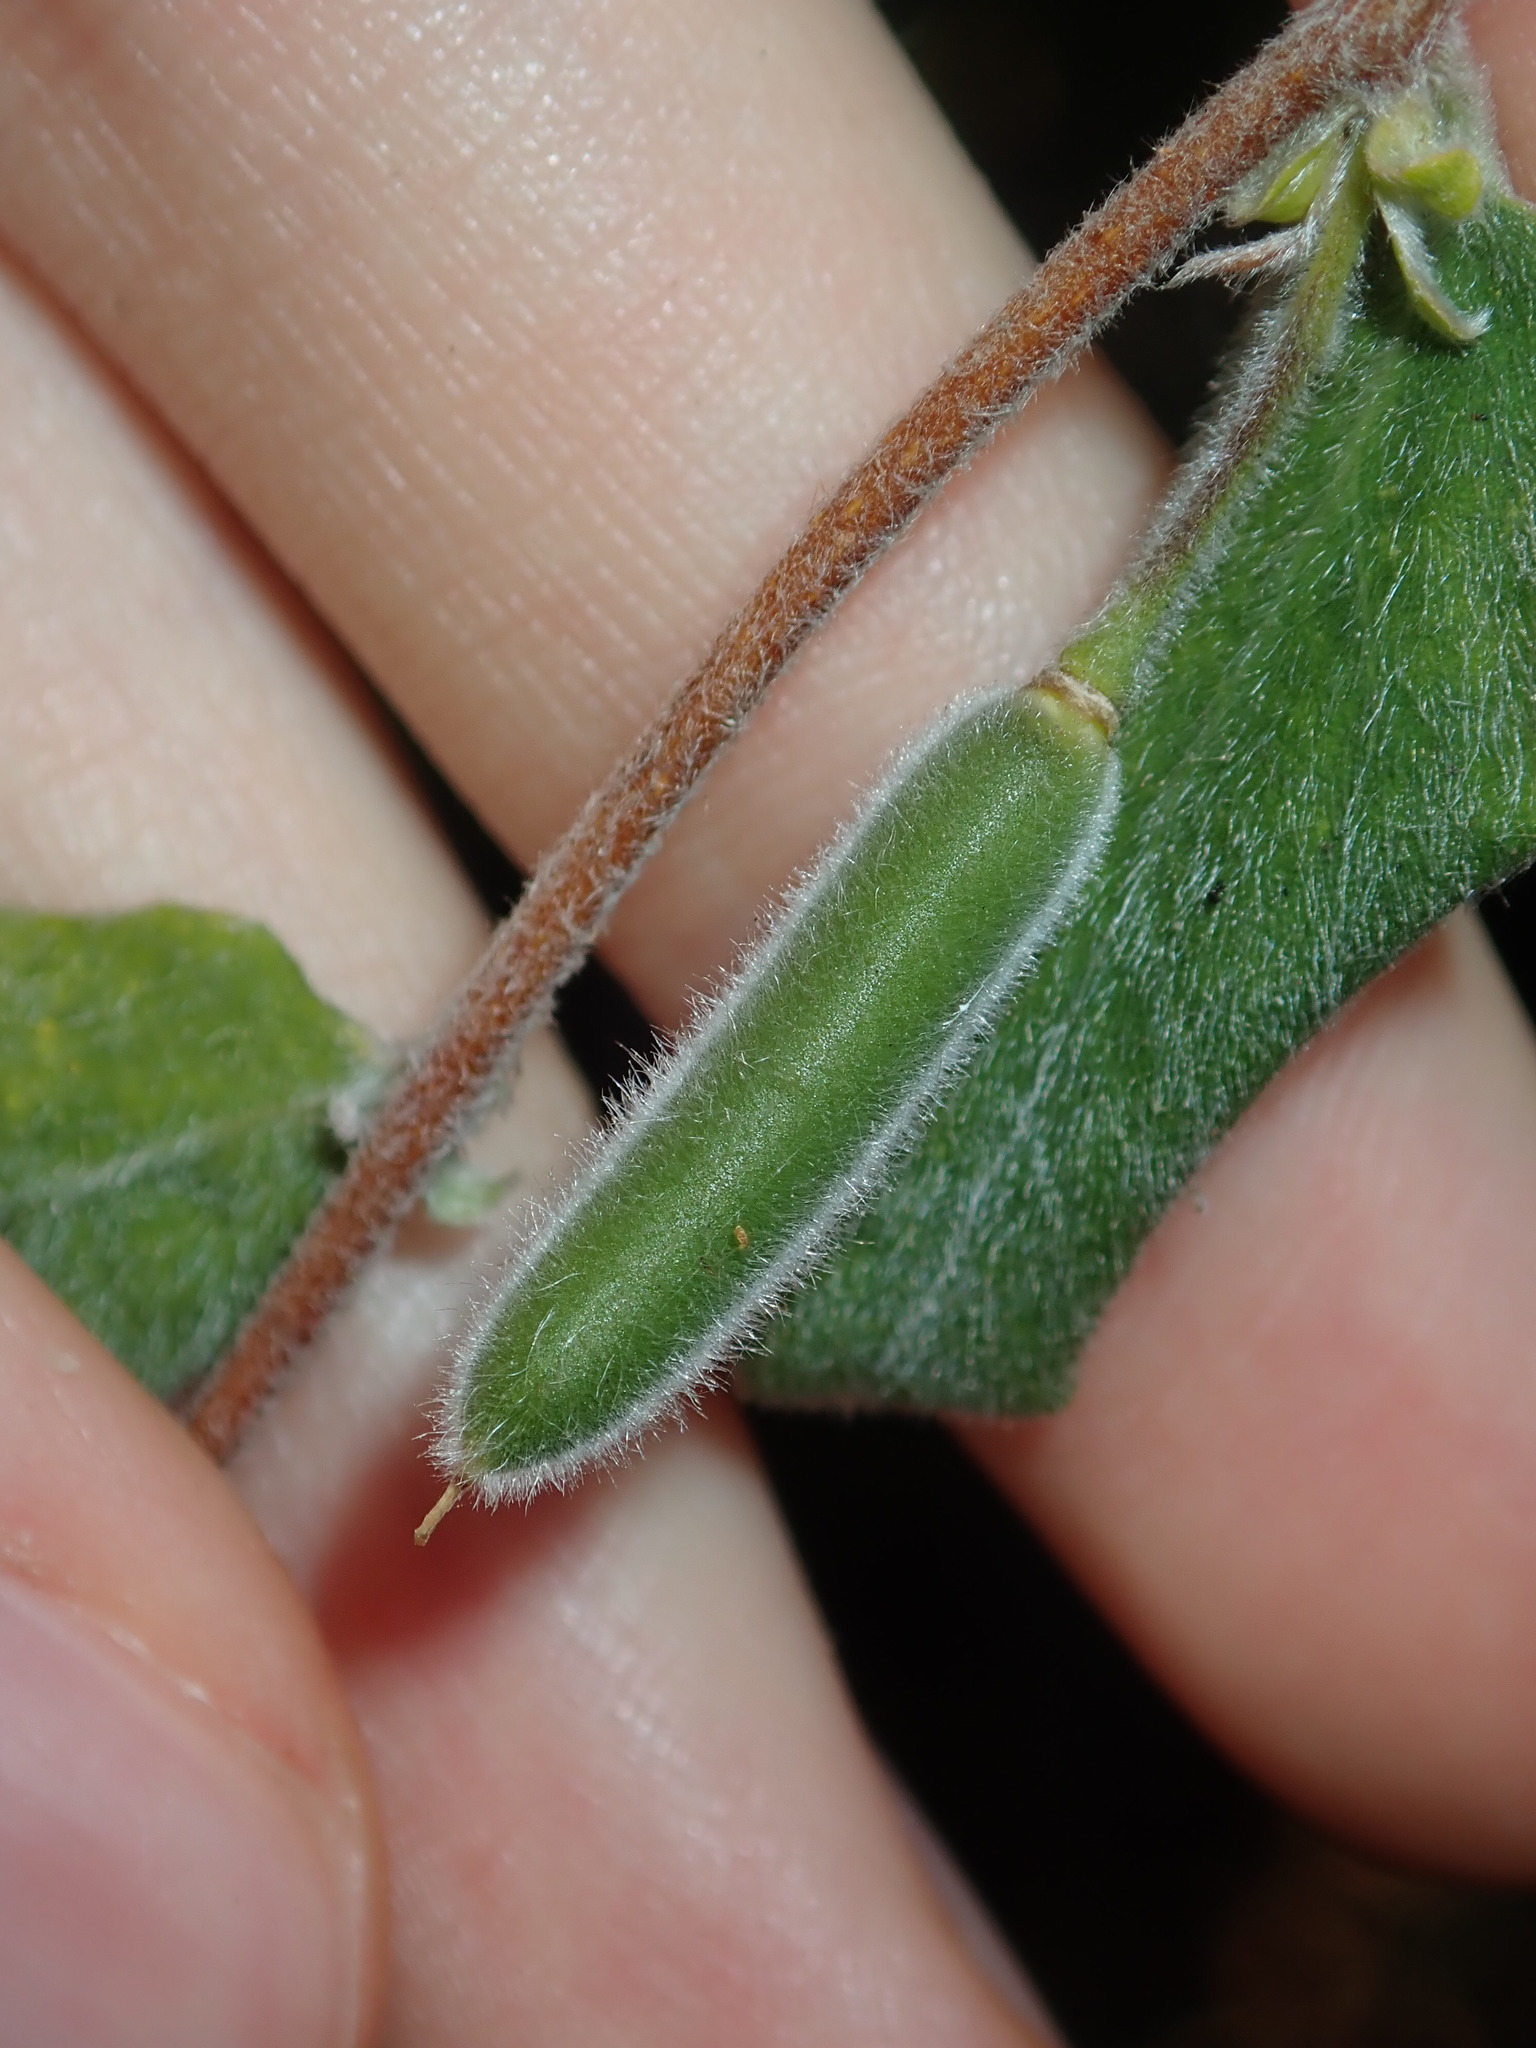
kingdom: Plantae
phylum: Tracheophyta
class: Magnoliopsida
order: Apiales
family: Pittosporaceae
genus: Billardiera
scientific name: Billardiera scandens
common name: Apple-berry
